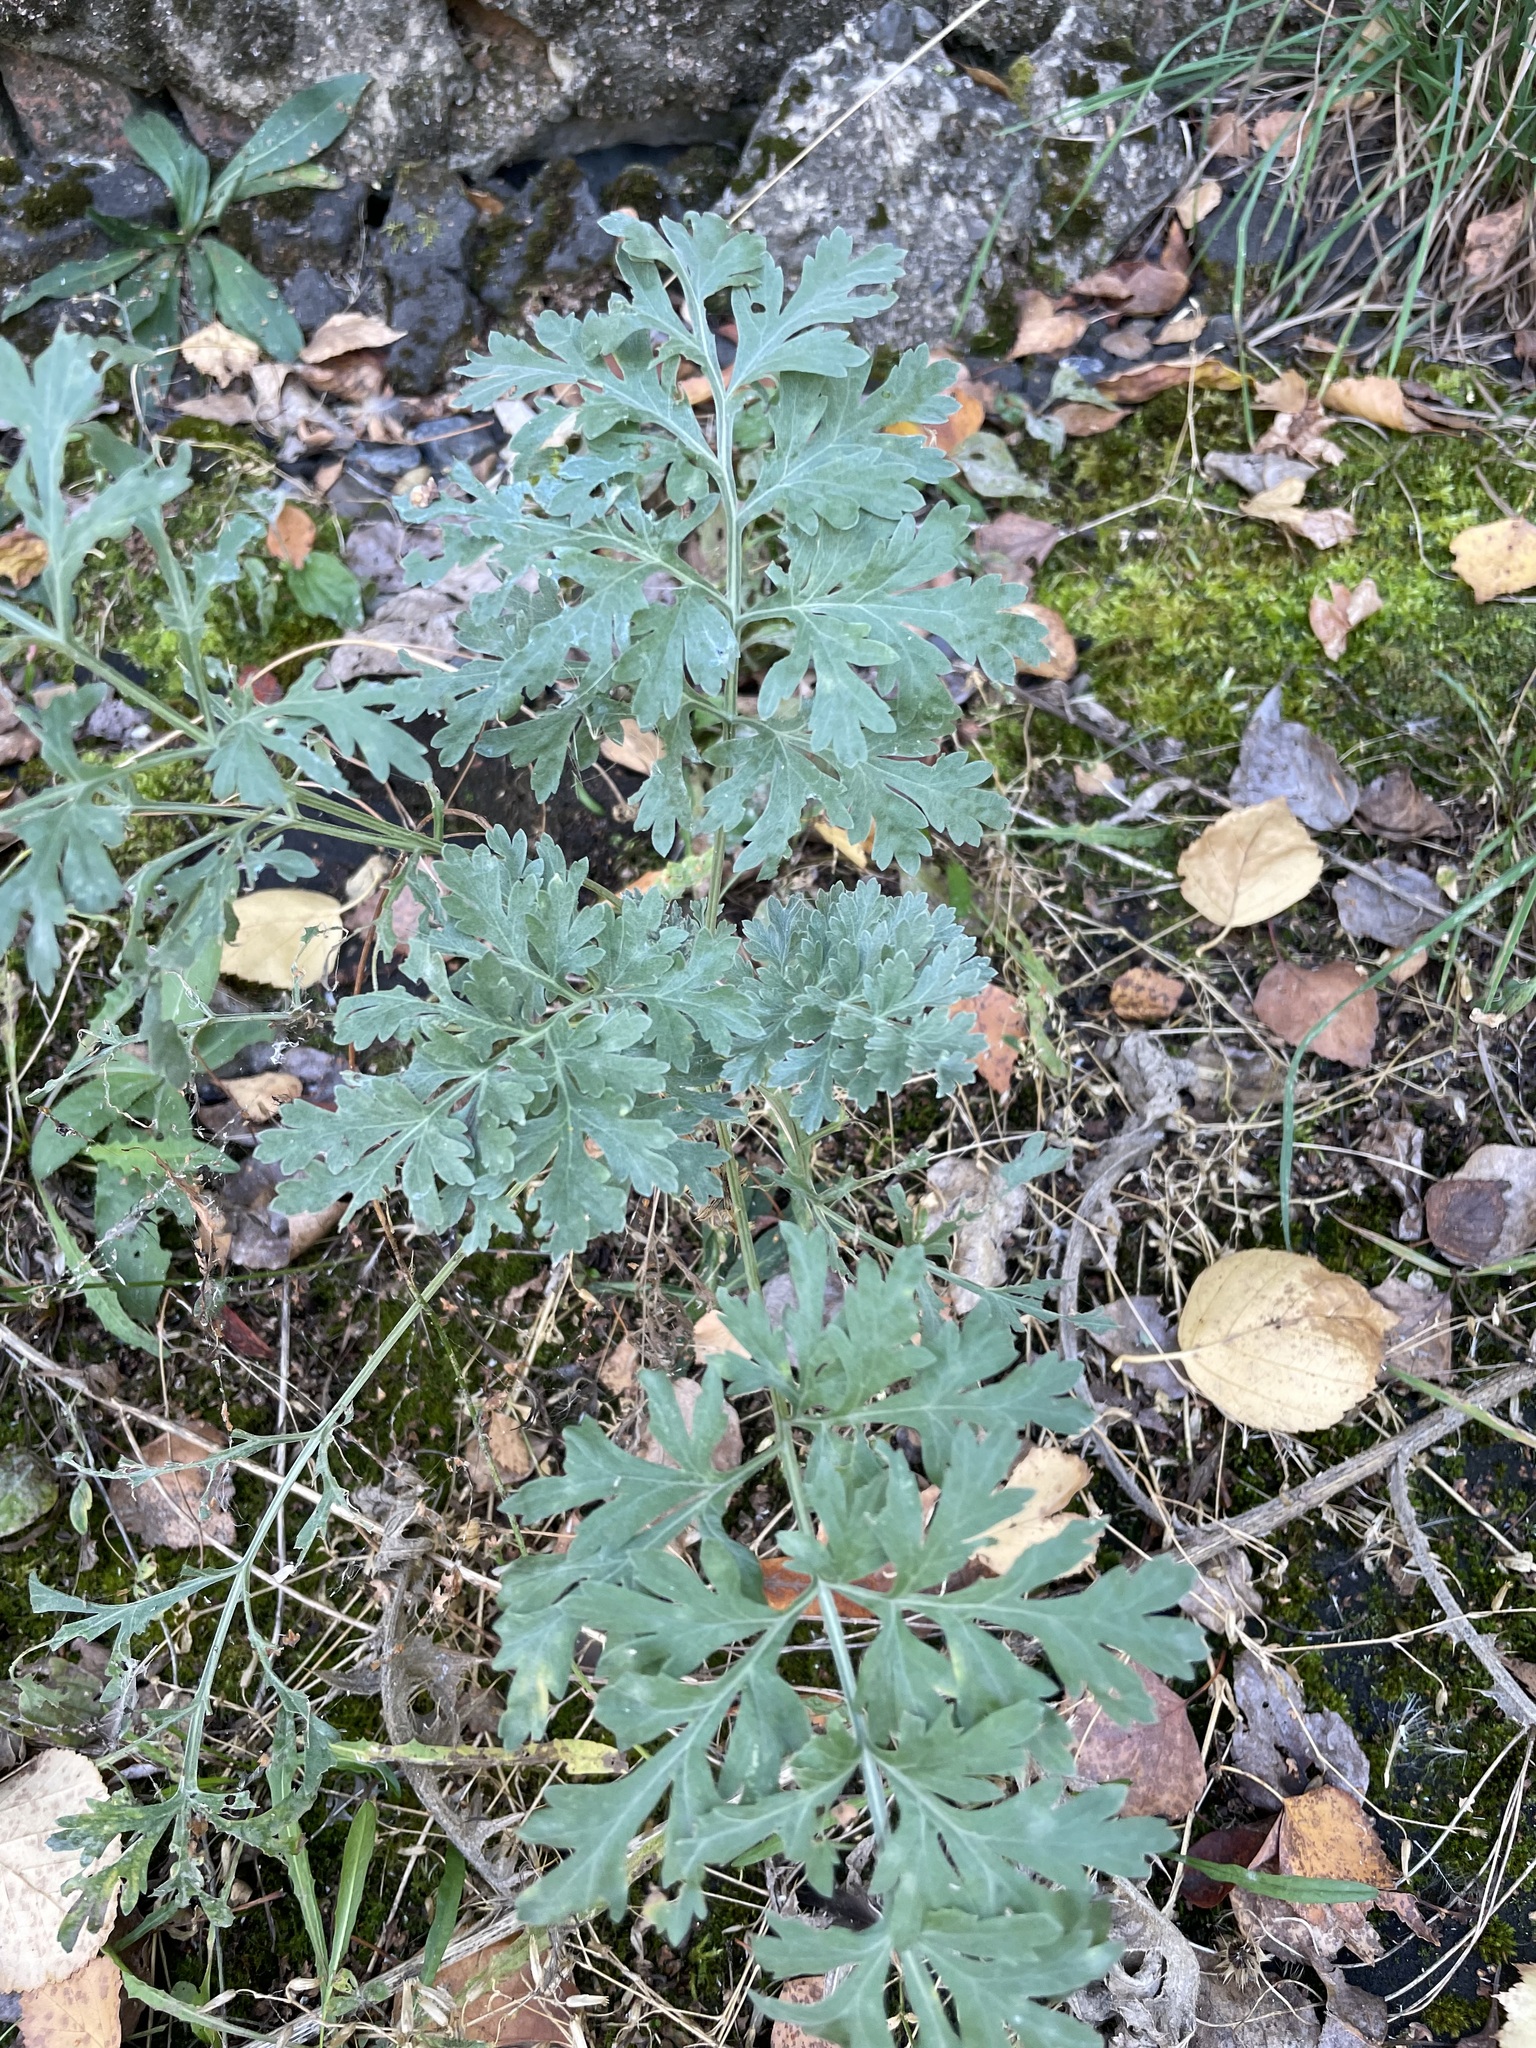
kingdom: Plantae
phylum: Tracheophyta
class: Magnoliopsida
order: Asterales
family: Asteraceae
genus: Artemisia
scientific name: Artemisia absinthium
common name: Wormwood
